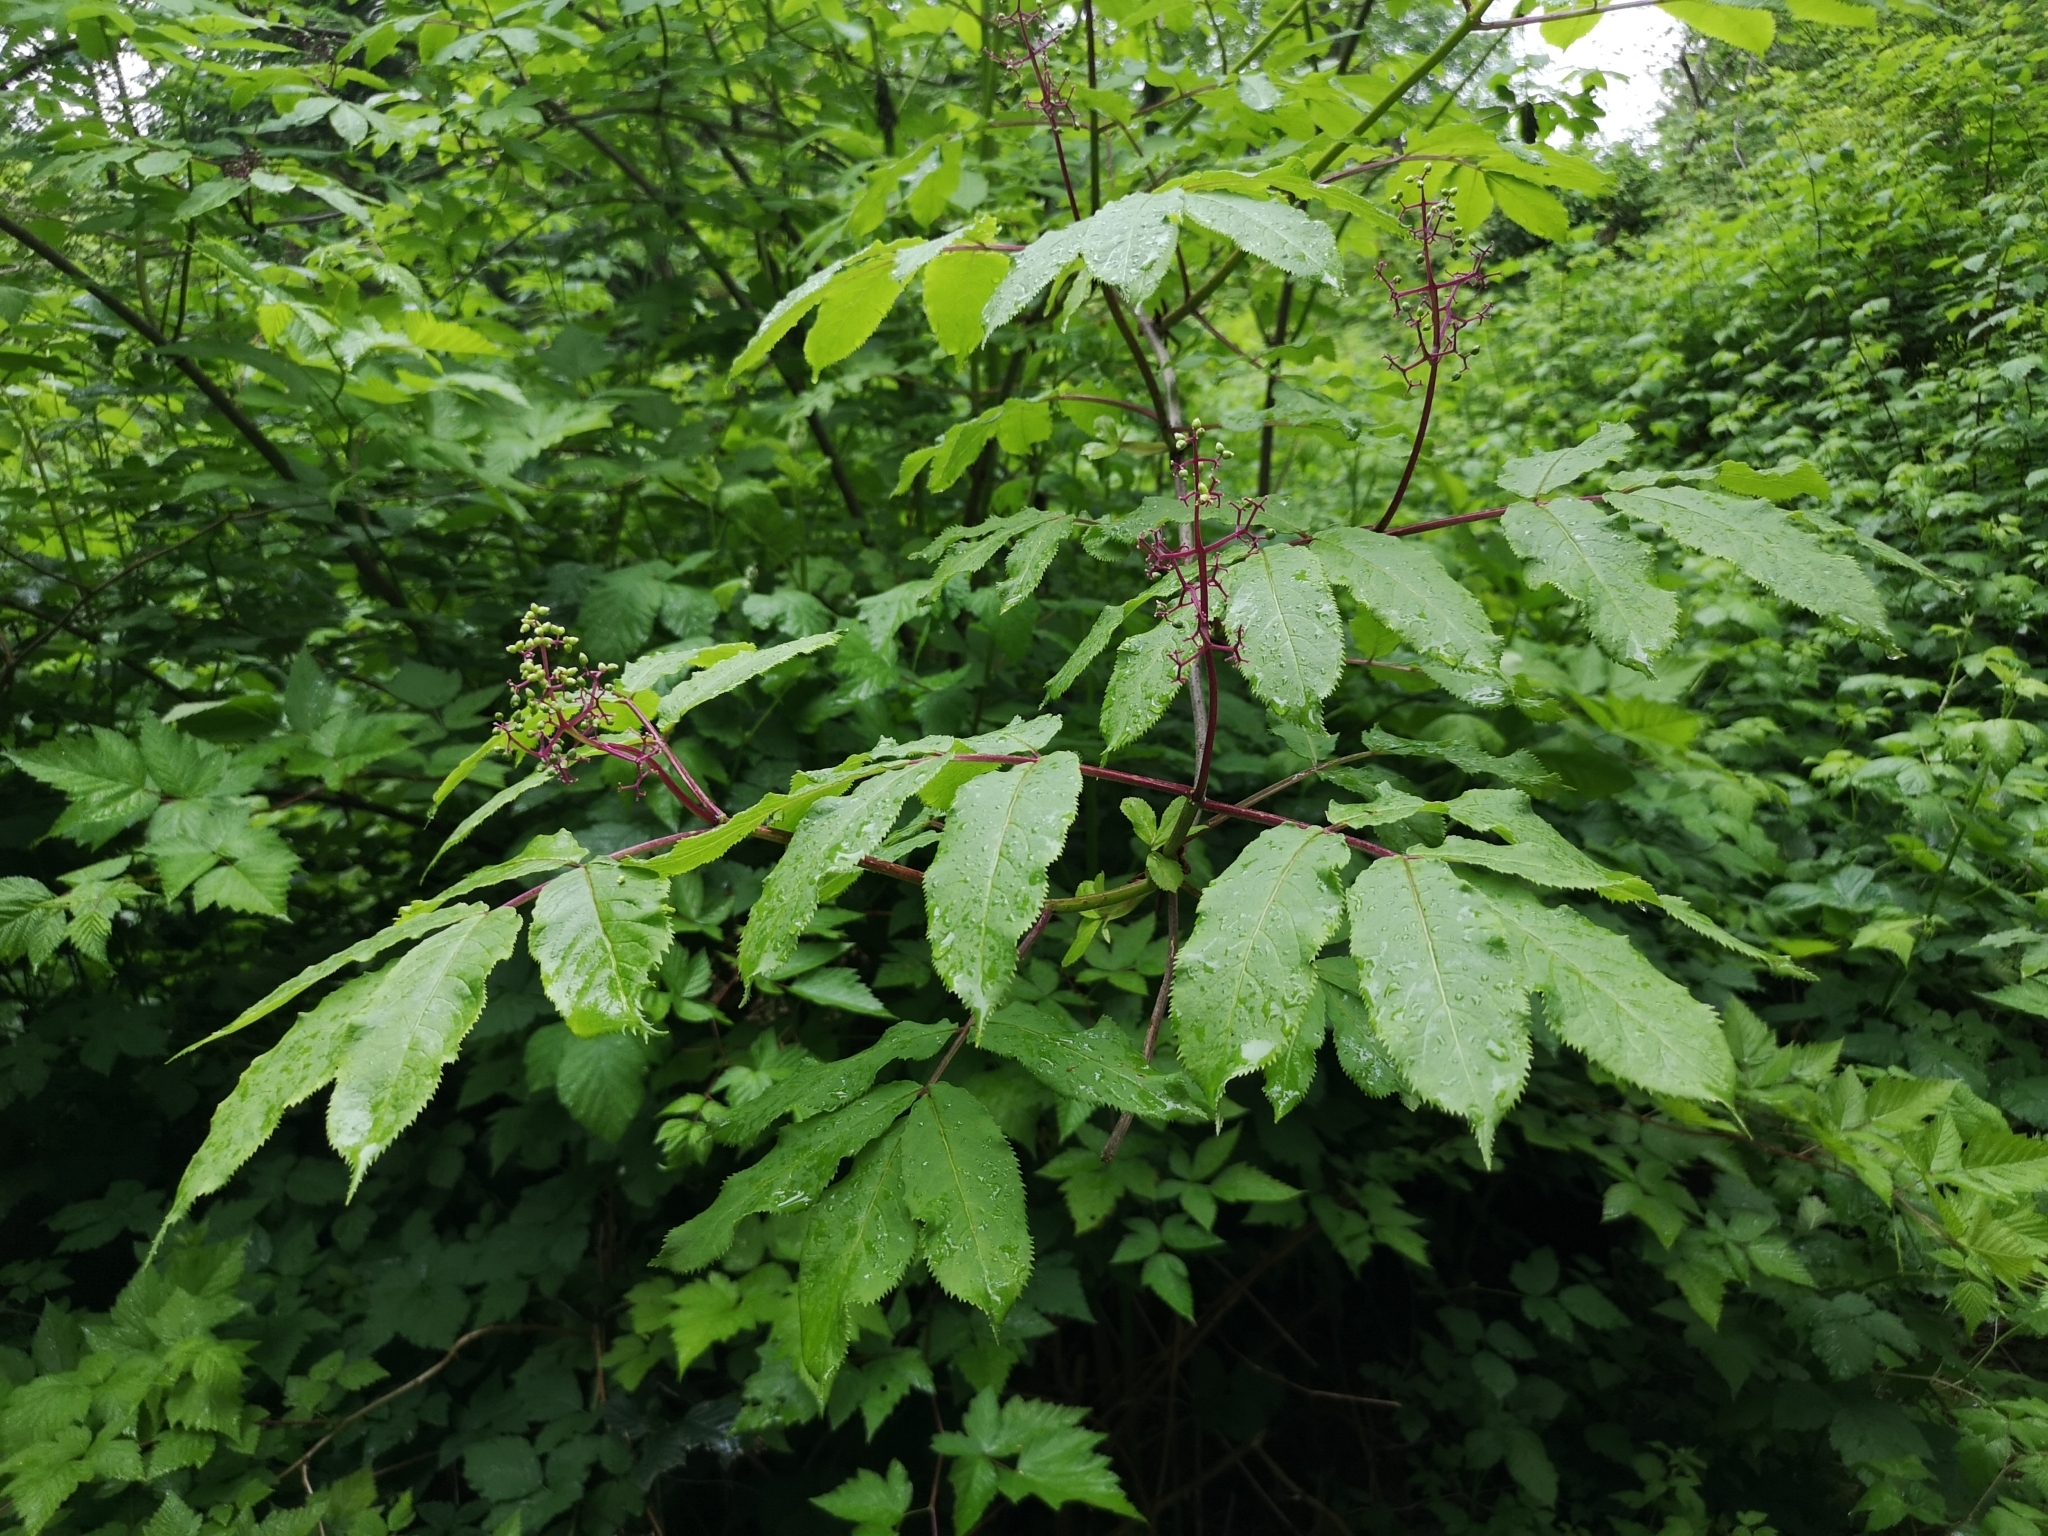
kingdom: Plantae
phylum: Tracheophyta
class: Magnoliopsida
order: Dipsacales
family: Viburnaceae
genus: Sambucus
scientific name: Sambucus racemosa
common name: Red-berried elder
